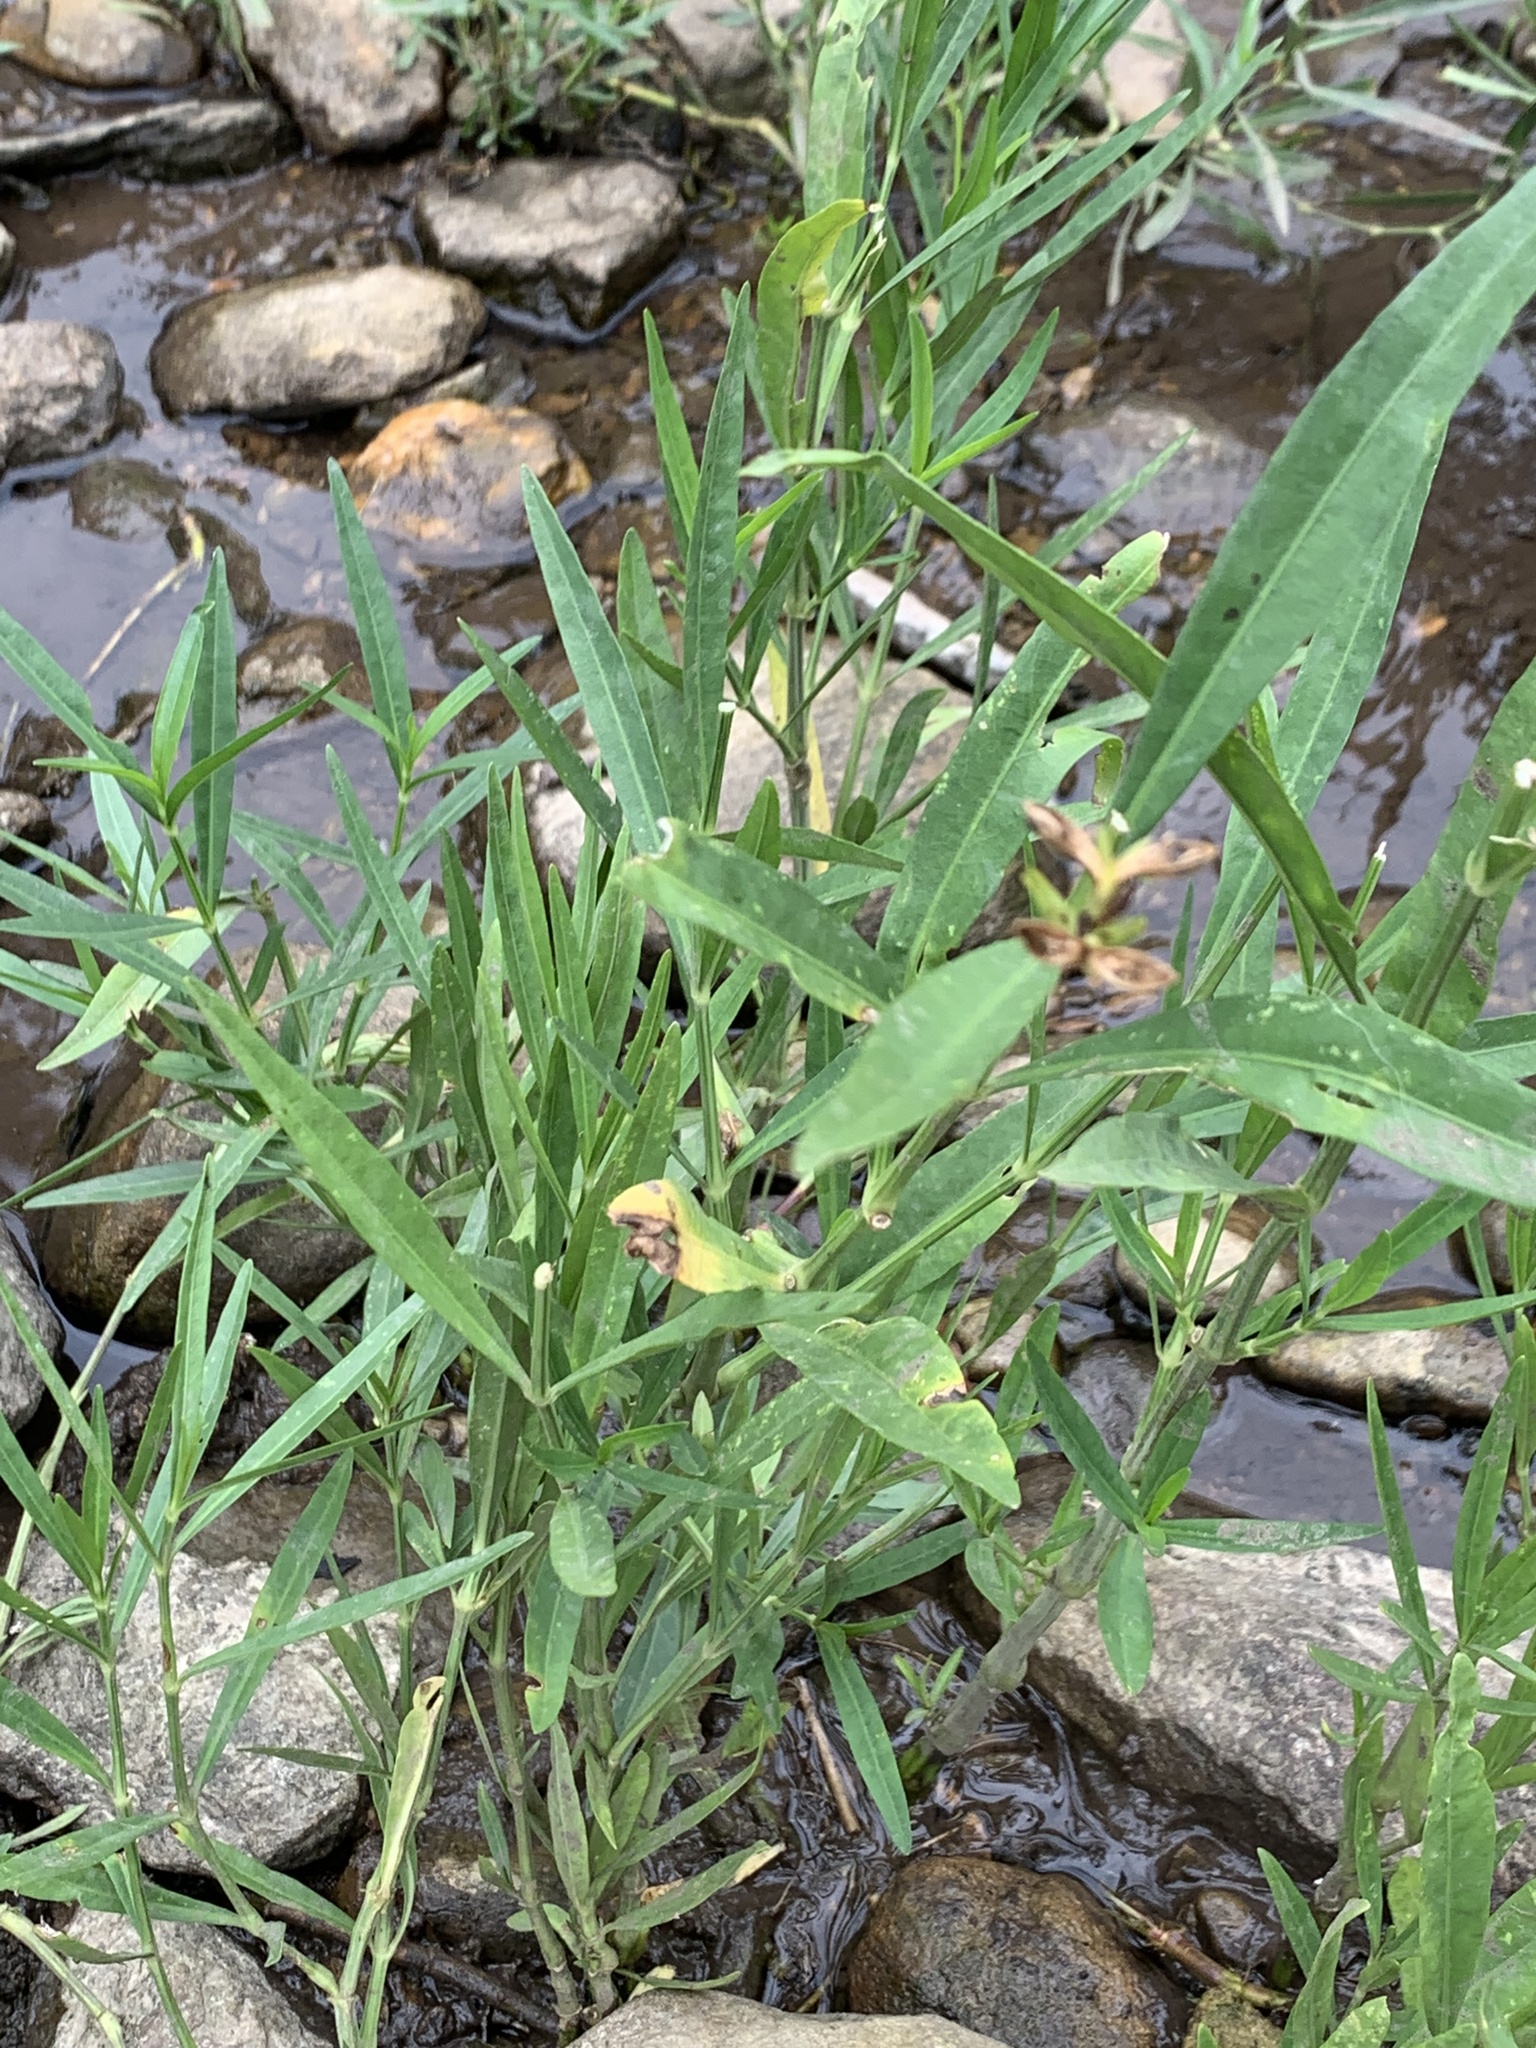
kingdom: Plantae
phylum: Tracheophyta
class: Magnoliopsida
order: Lamiales
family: Acanthaceae
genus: Dianthera
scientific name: Dianthera americana
